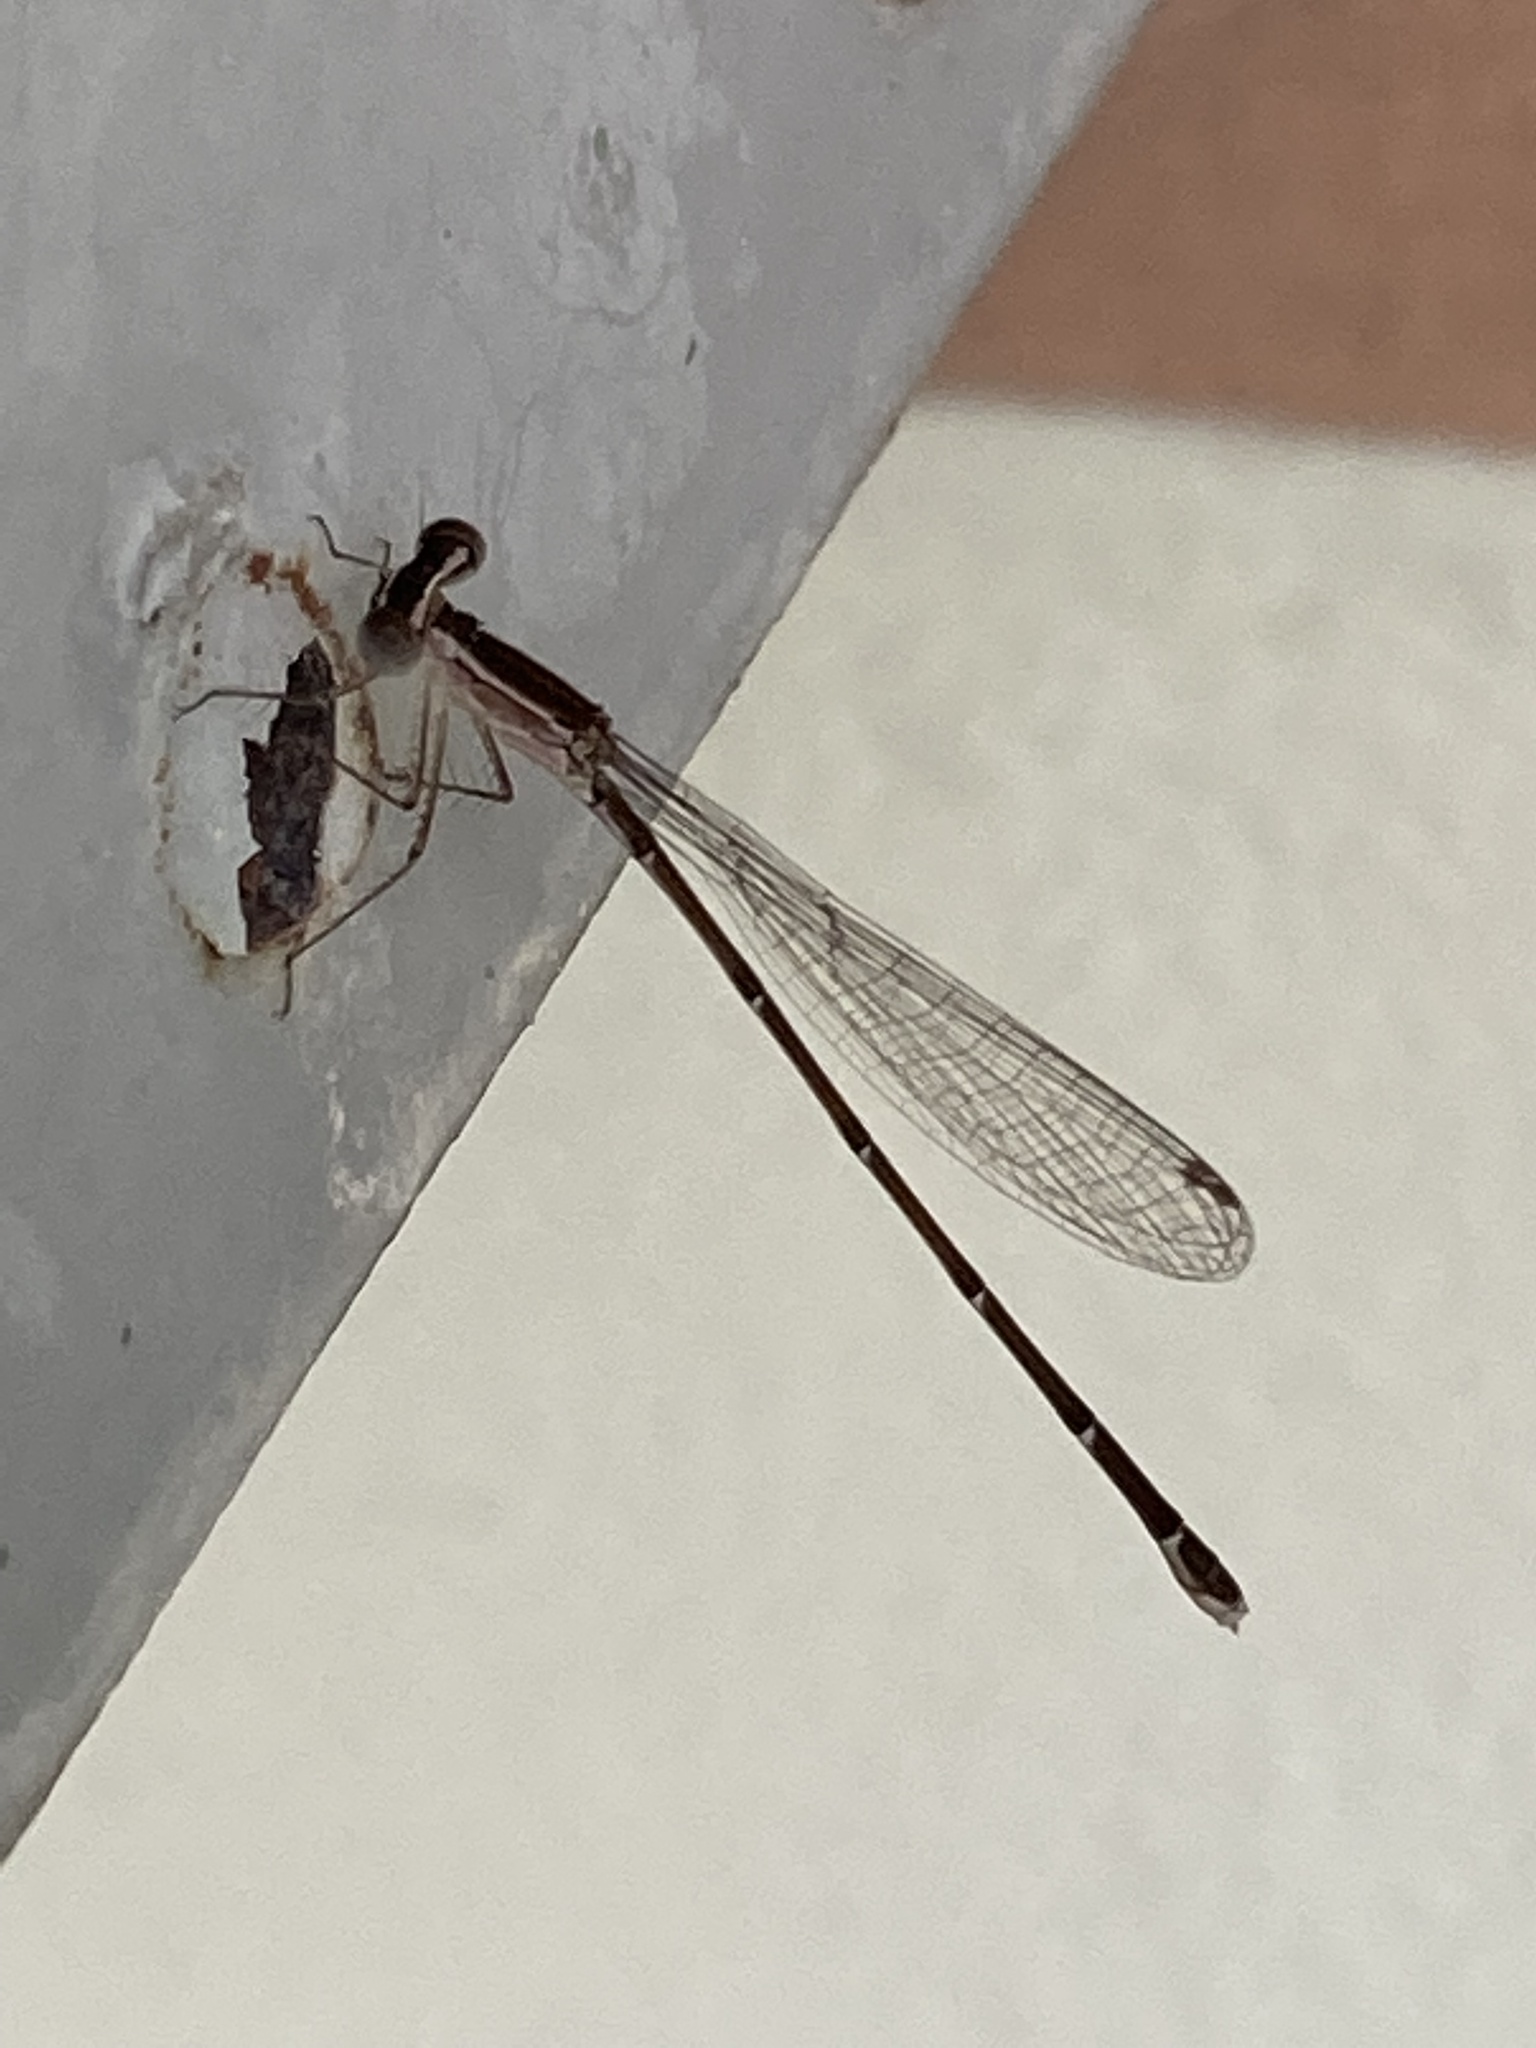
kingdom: Animalia
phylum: Arthropoda
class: Insecta
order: Odonata
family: Coenagrionidae
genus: Nehalennia
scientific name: Nehalennia pallidula
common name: Everglades sprite
